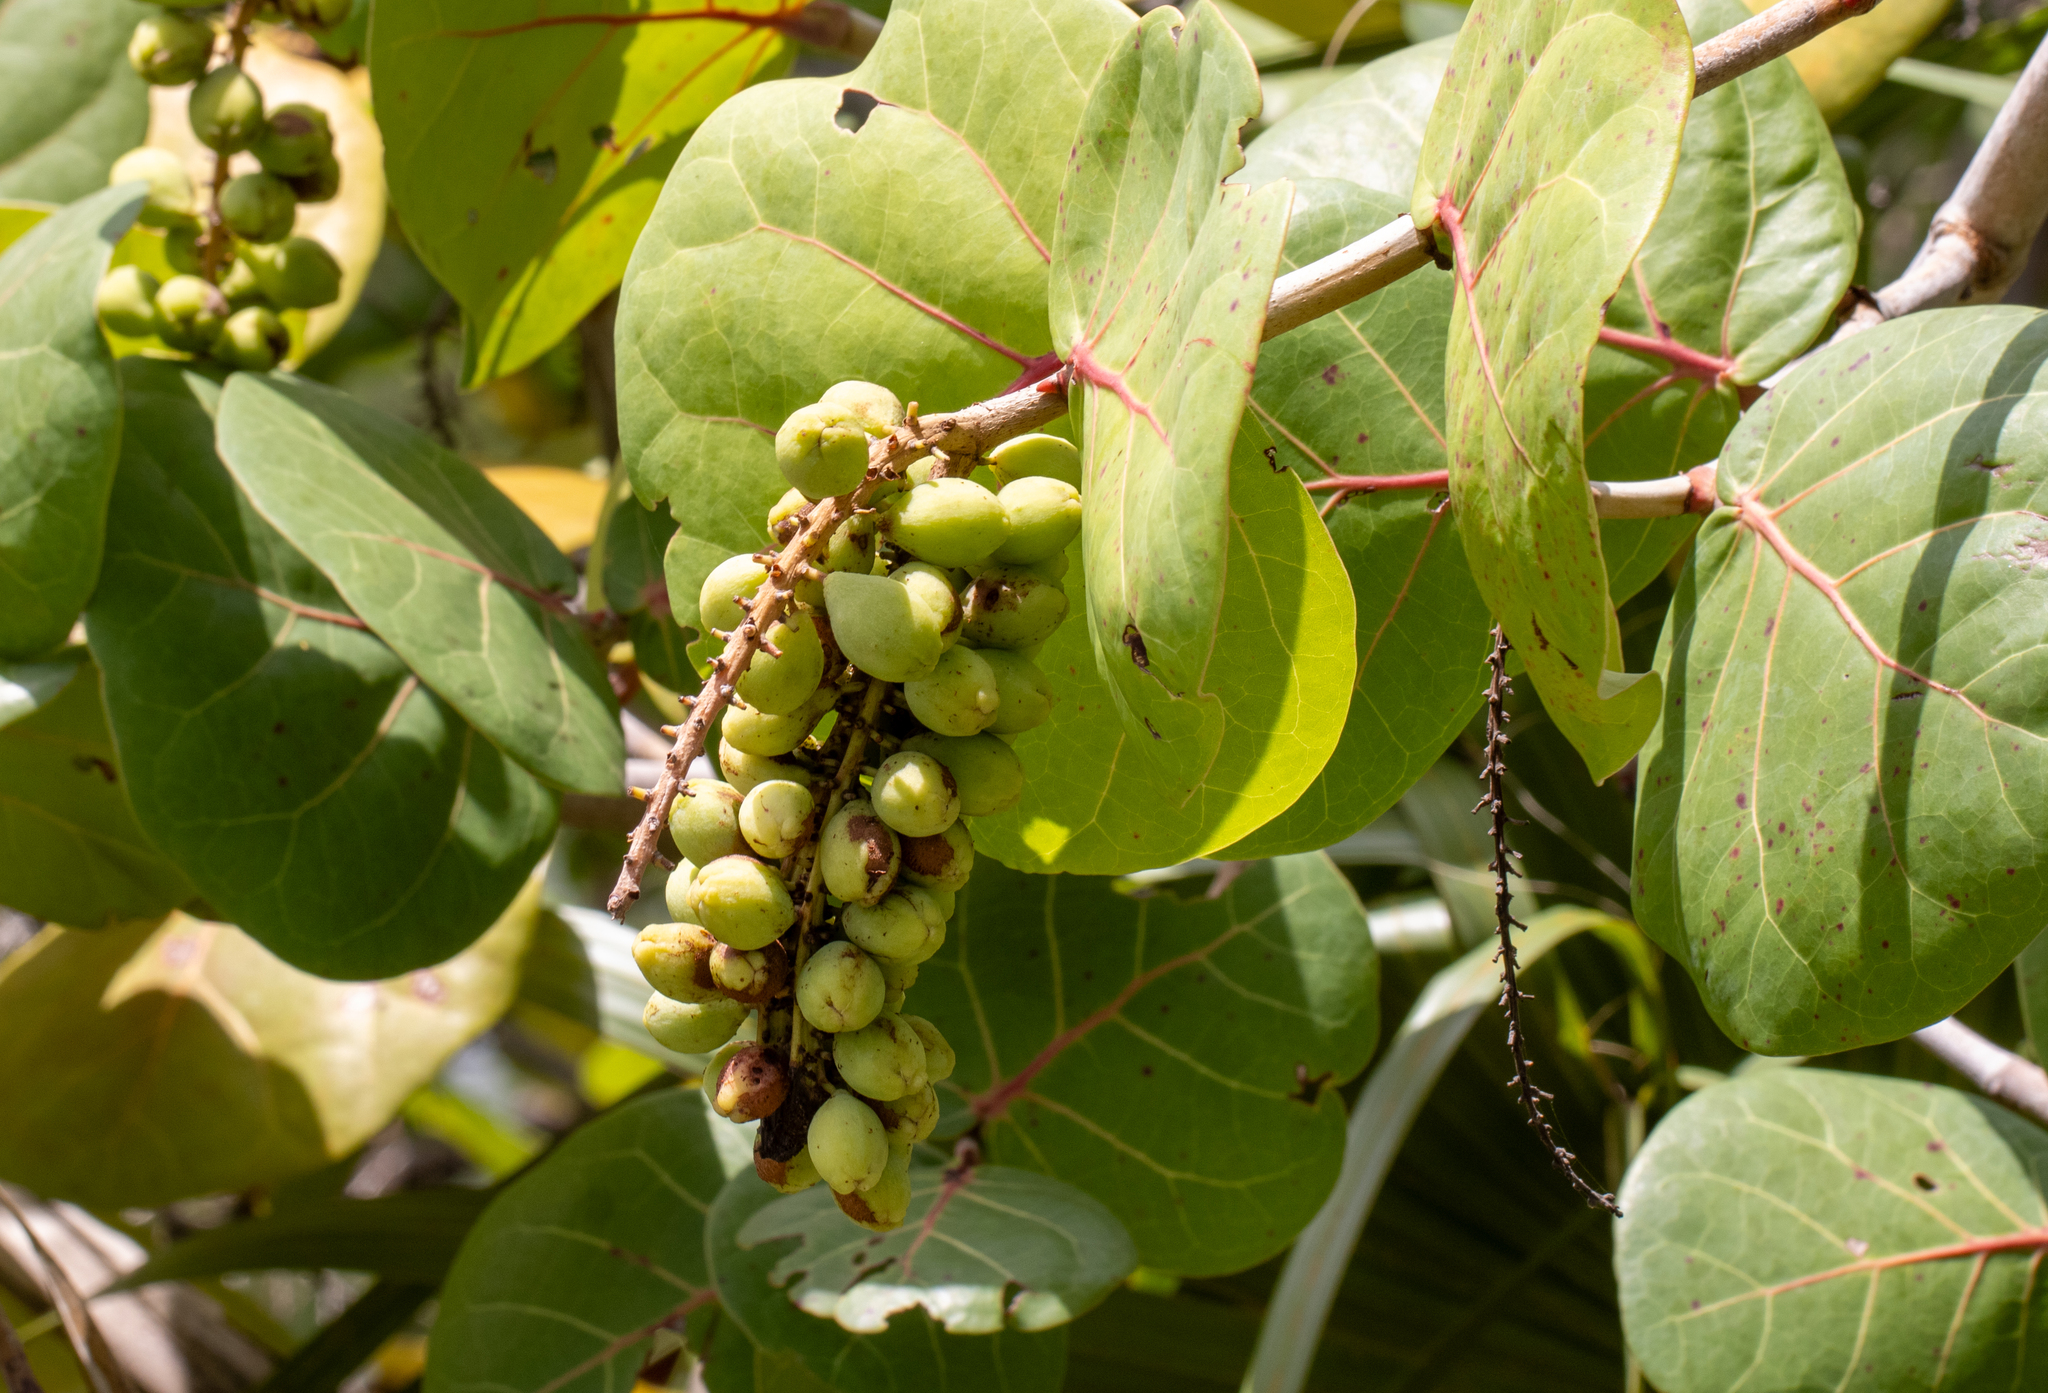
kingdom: Plantae
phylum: Tracheophyta
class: Magnoliopsida
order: Caryophyllales
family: Polygonaceae
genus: Coccoloba
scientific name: Coccoloba uvifera
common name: Seagrape
